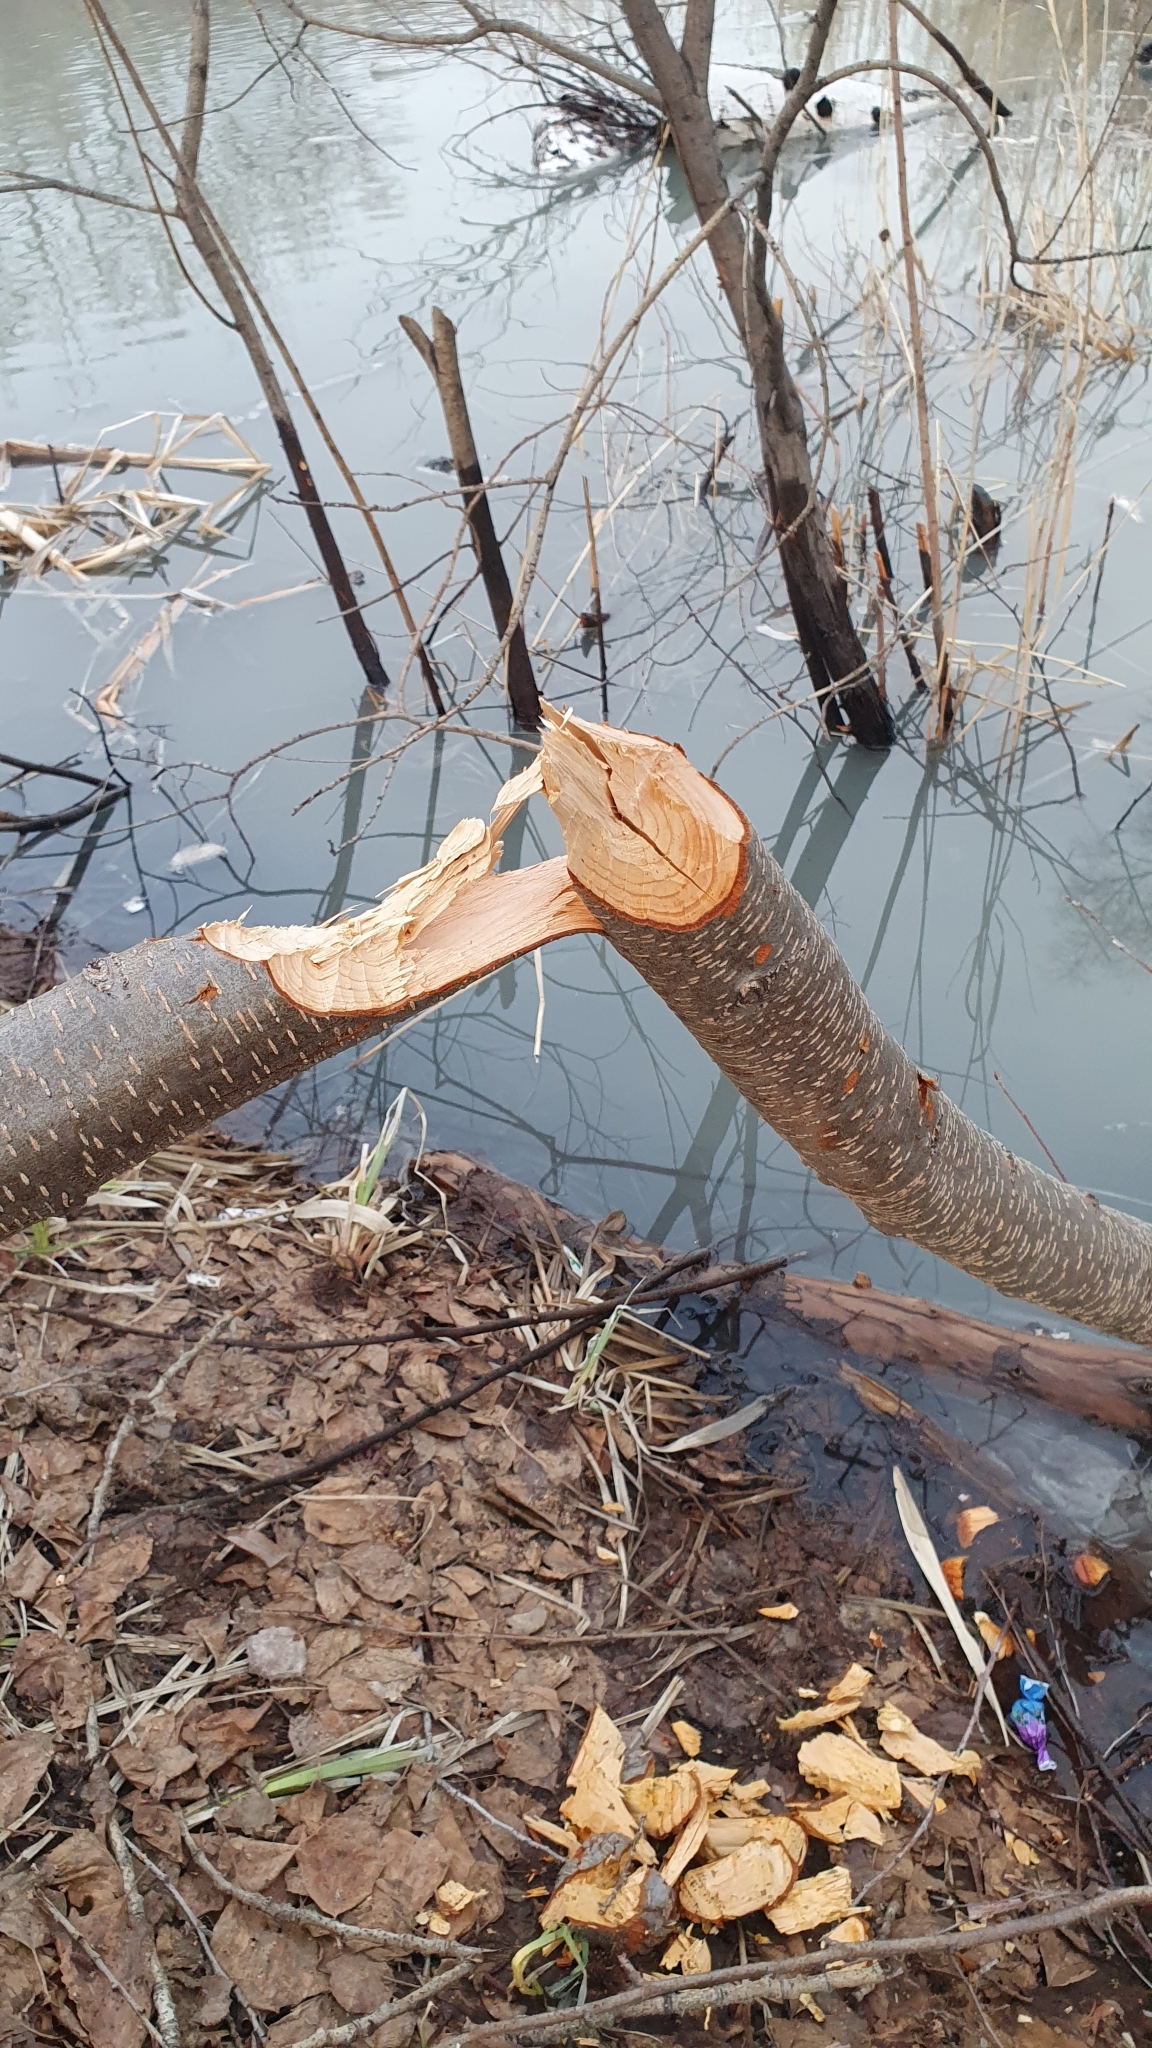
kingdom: Animalia
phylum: Chordata
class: Mammalia
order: Rodentia
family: Castoridae
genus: Castor
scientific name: Castor fiber
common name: Eurasian beaver
